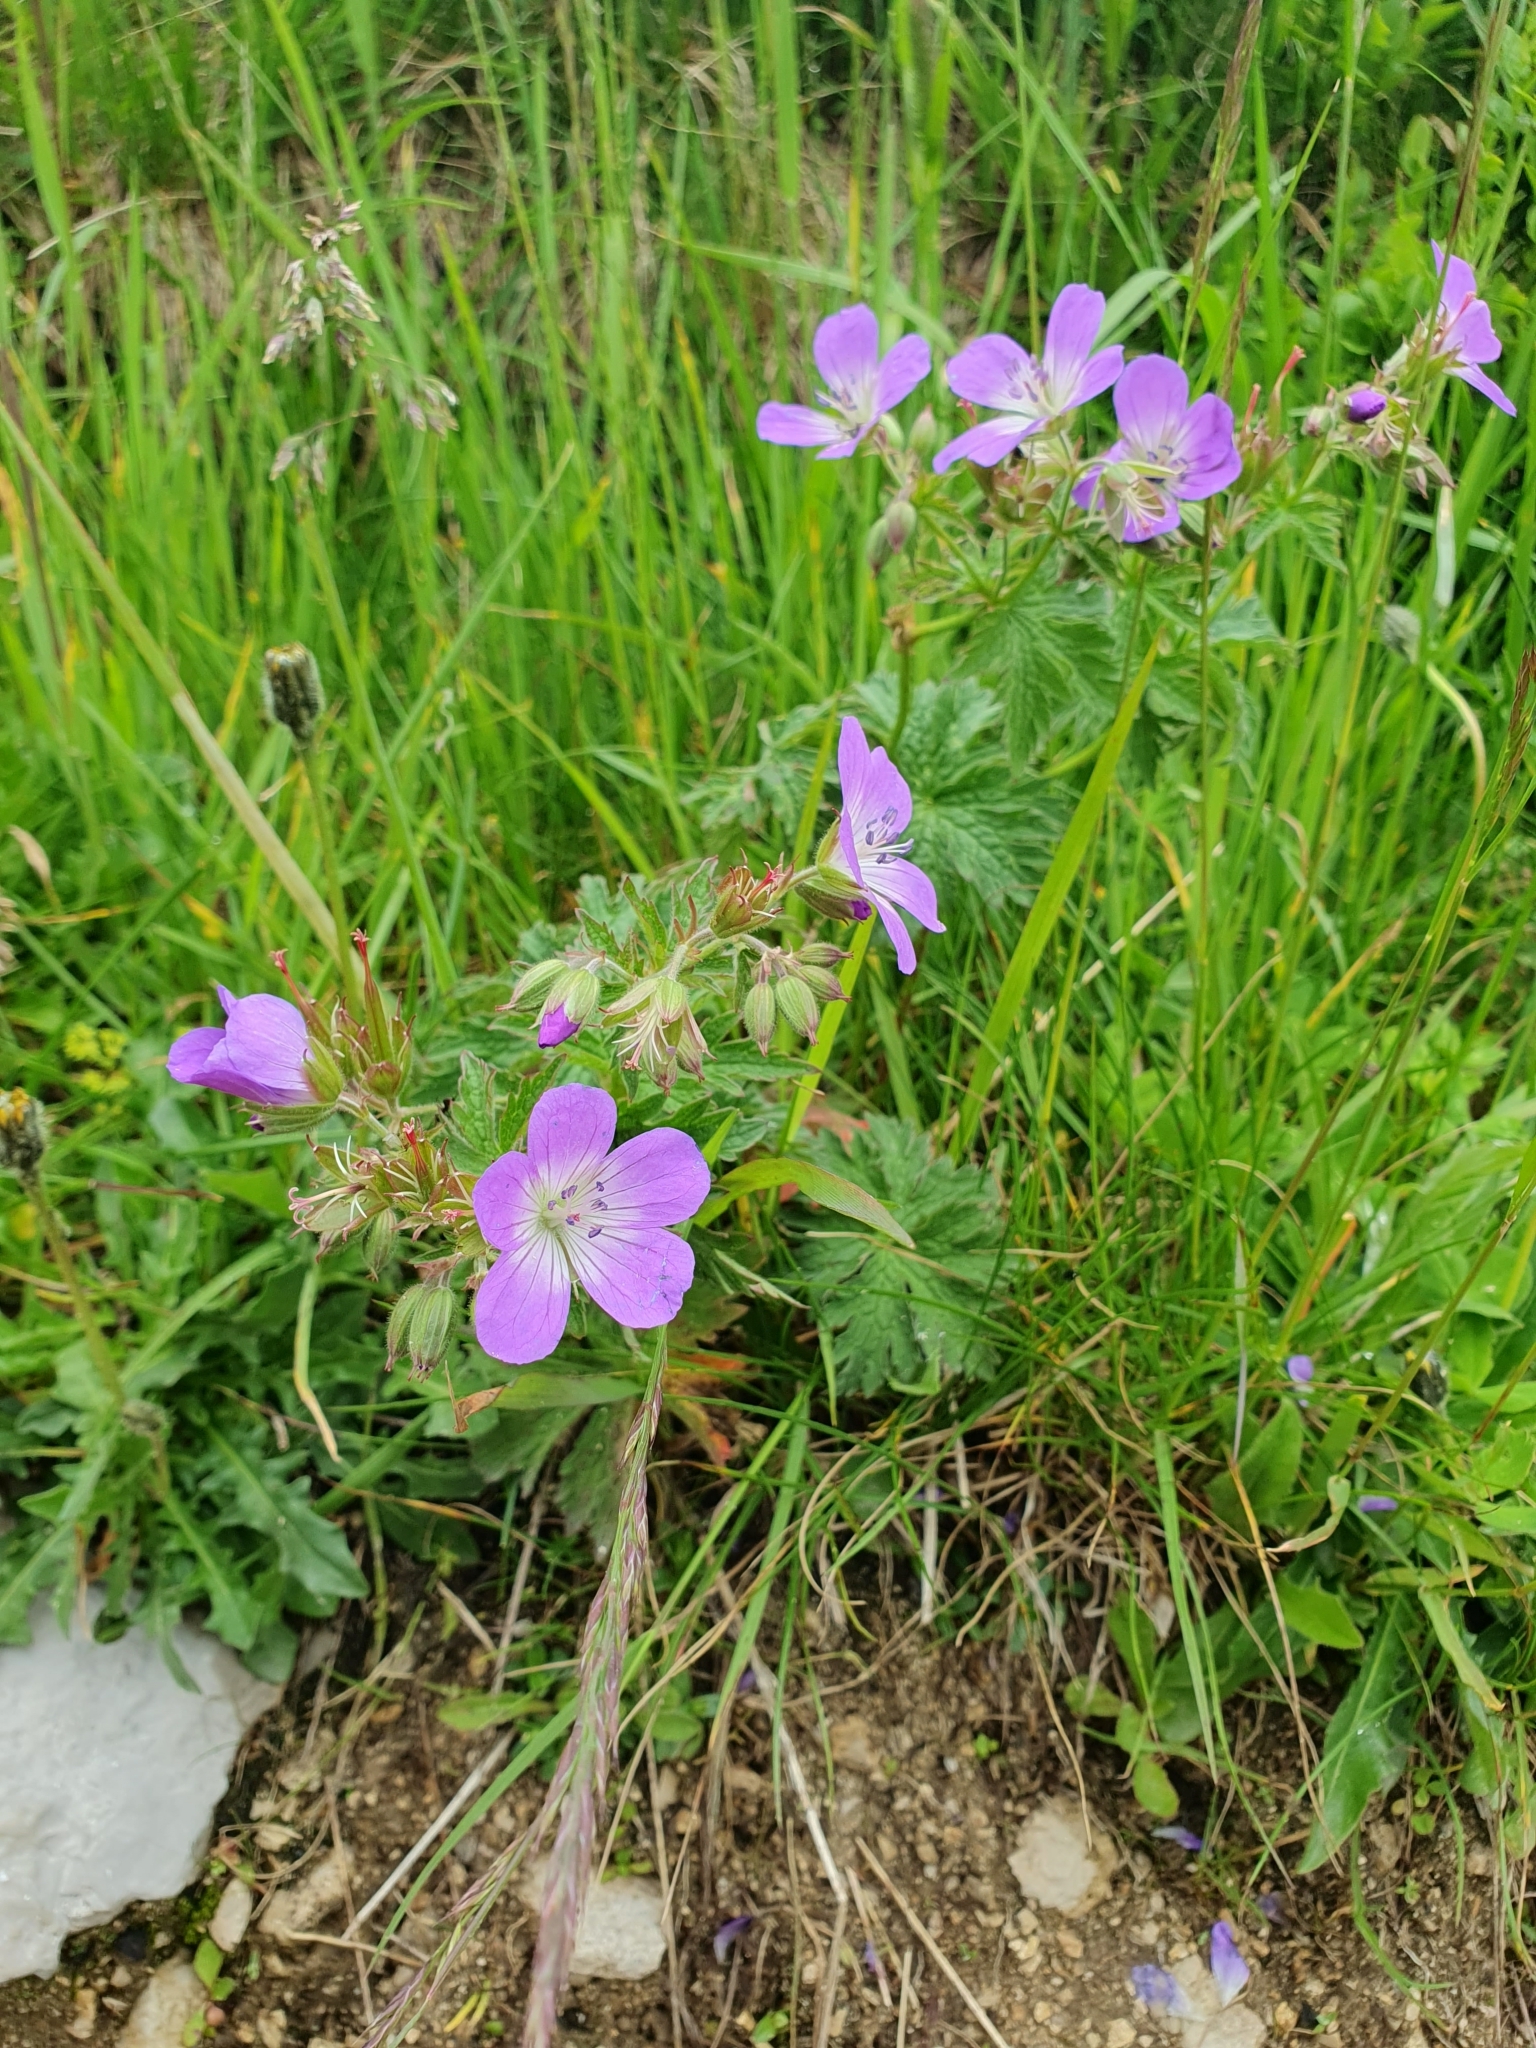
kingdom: Plantae
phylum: Tracheophyta
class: Magnoliopsida
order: Geraniales
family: Geraniaceae
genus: Geranium
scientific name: Geranium sylvaticum
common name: Wood crane's-bill
